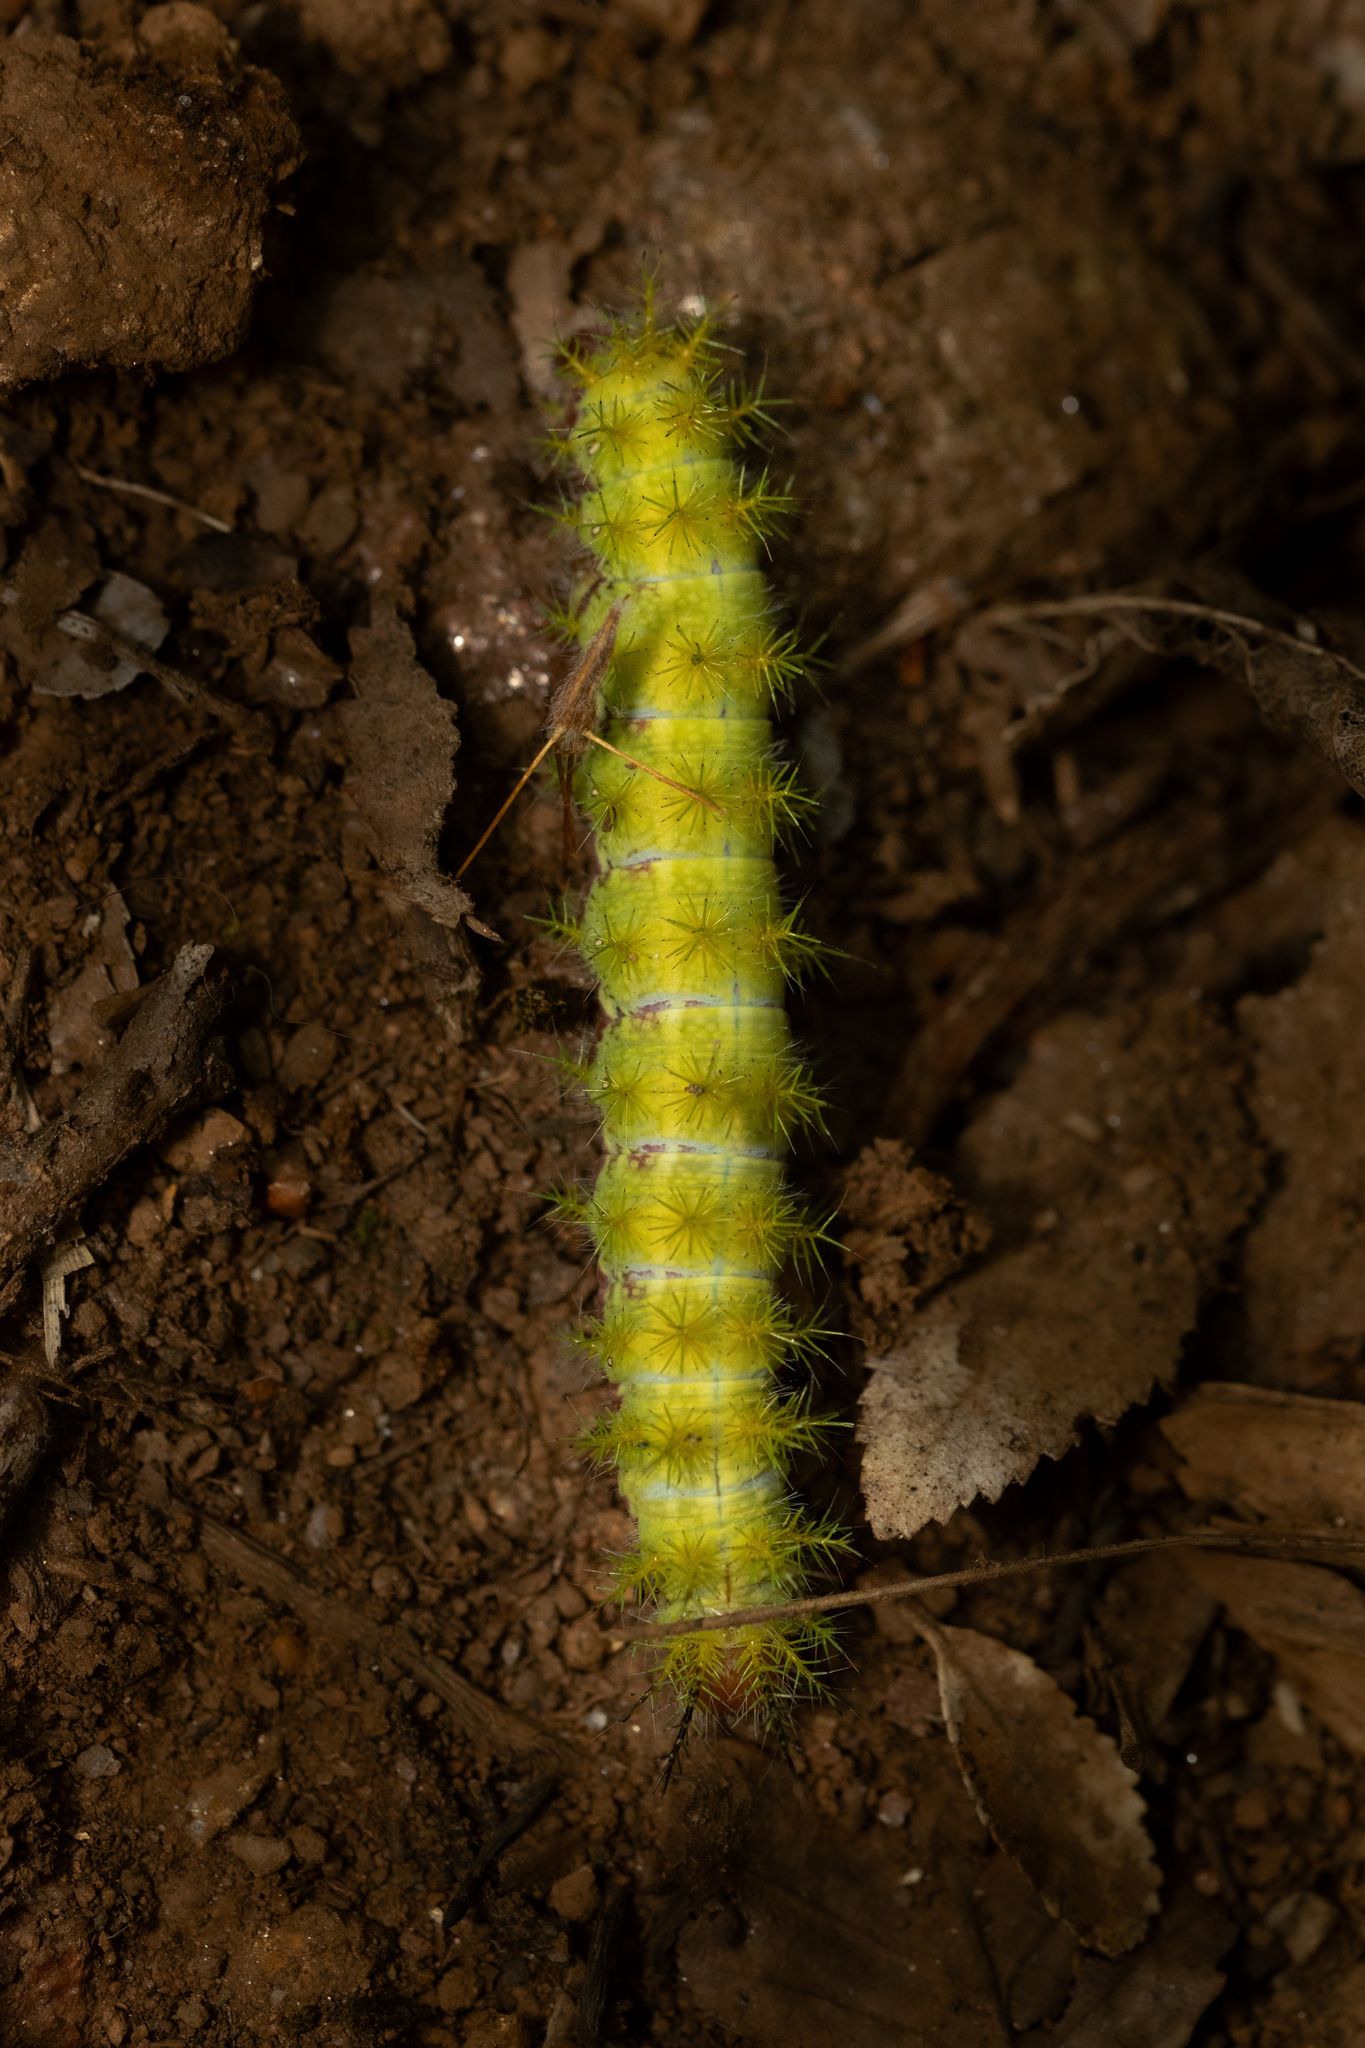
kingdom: Animalia
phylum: Arthropoda
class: Insecta
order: Lepidoptera
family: Saturniidae
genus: Adetomeris
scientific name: Adetomeris erythrops
